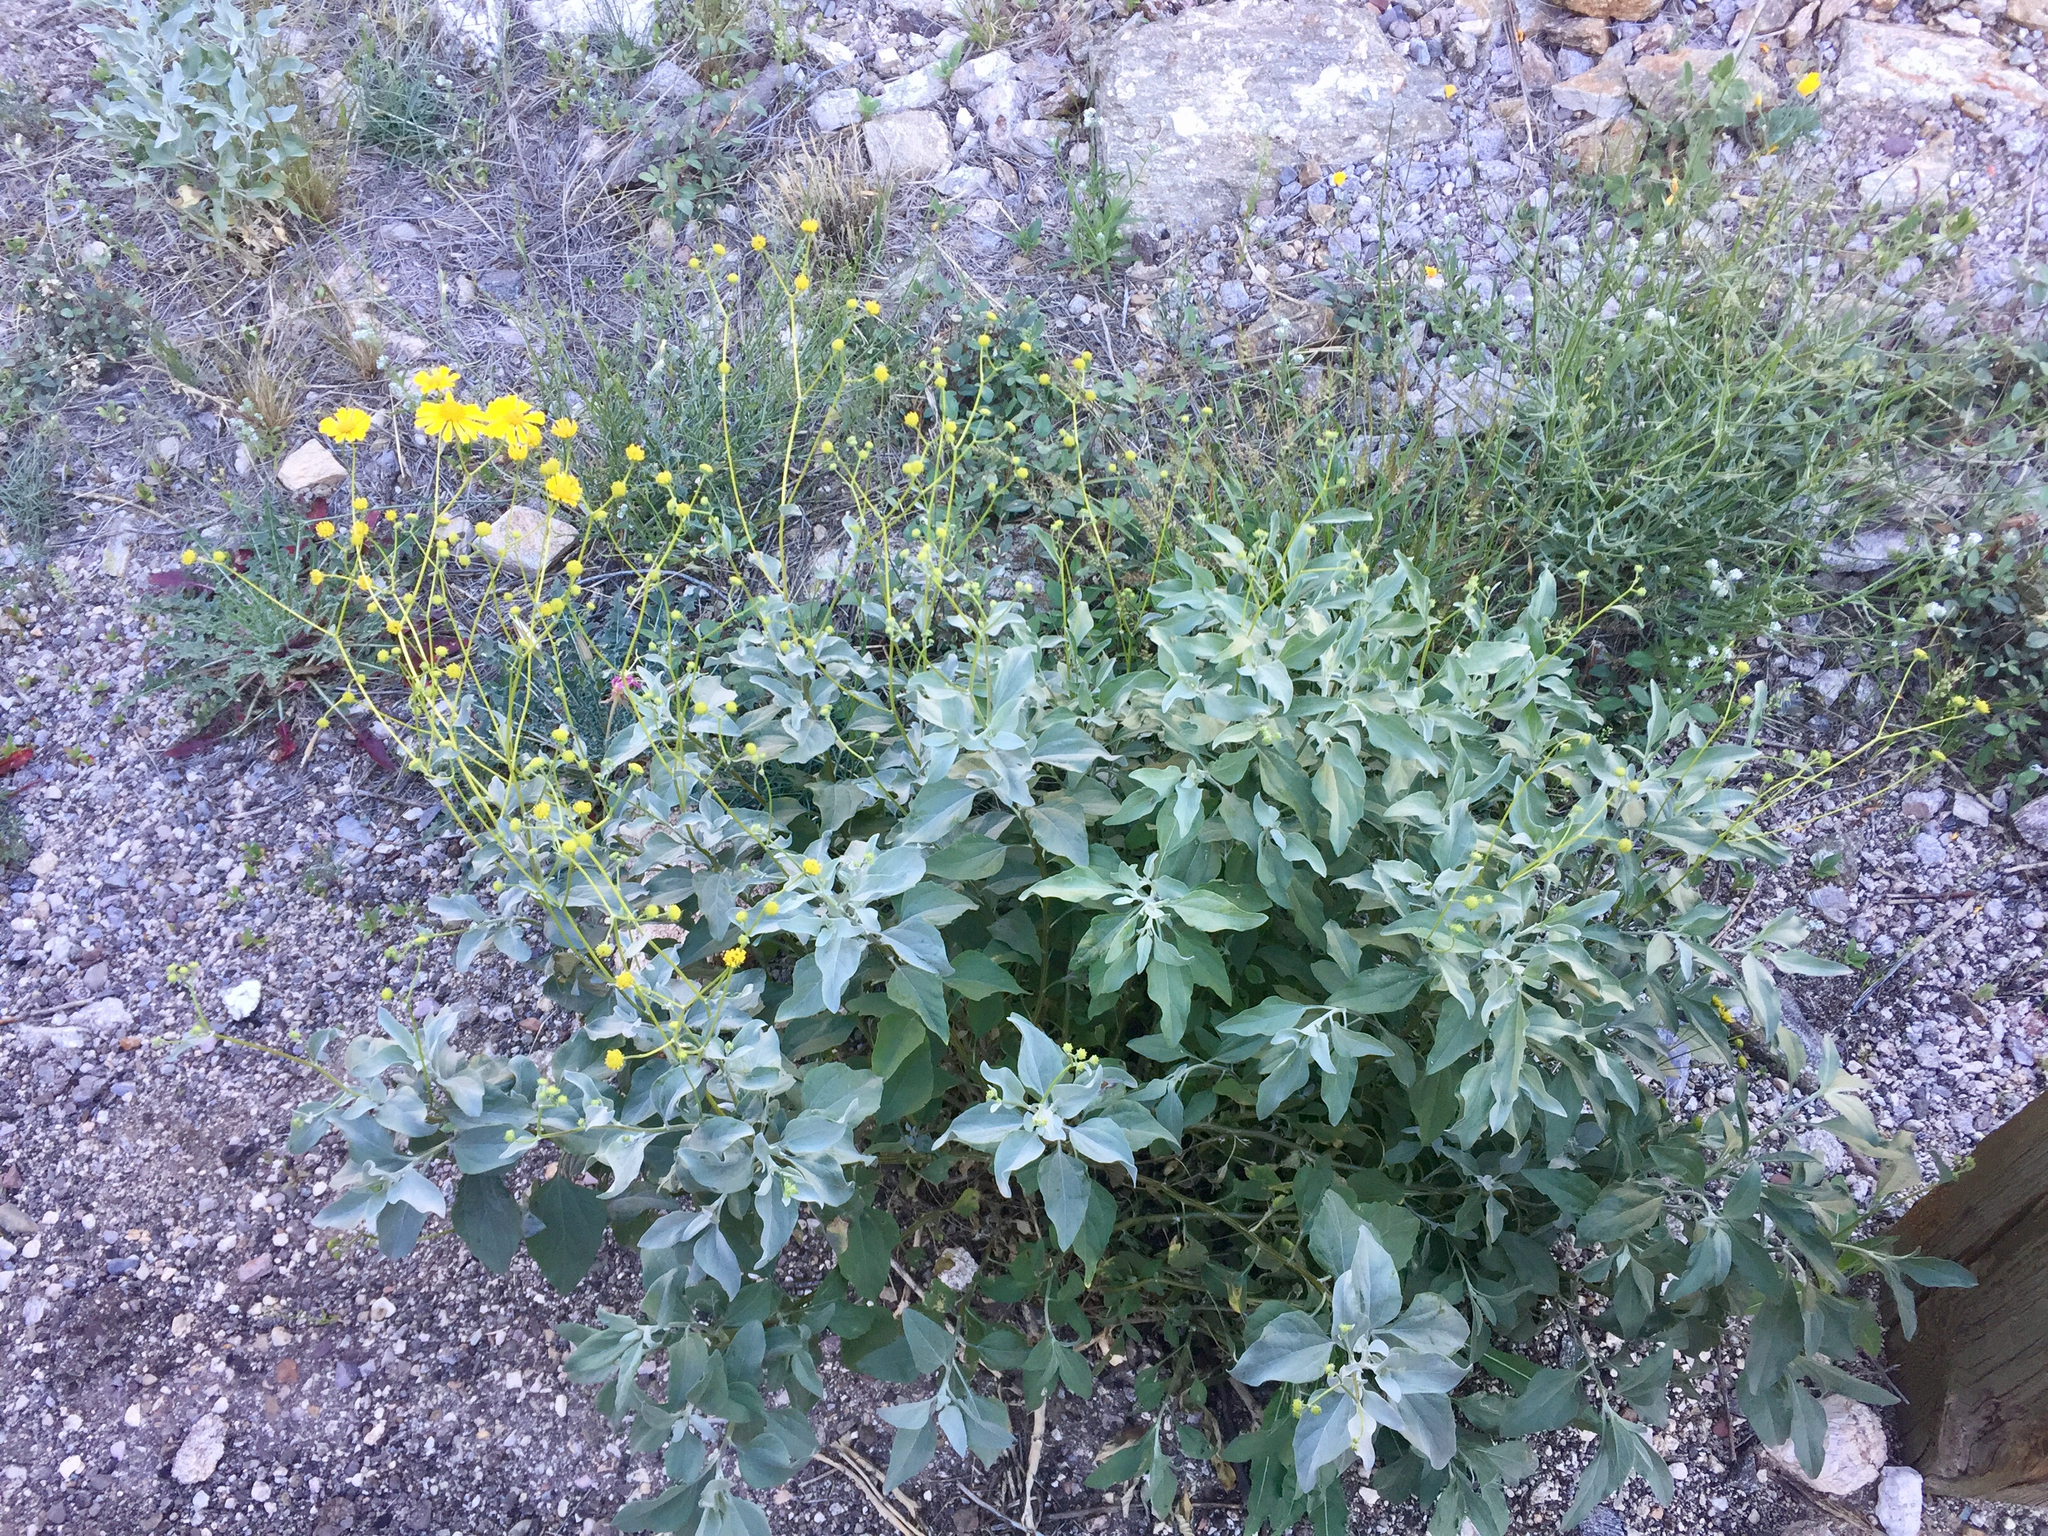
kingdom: Plantae
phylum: Tracheophyta
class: Magnoliopsida
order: Asterales
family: Asteraceae
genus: Encelia
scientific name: Encelia farinosa
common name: Brittlebush
